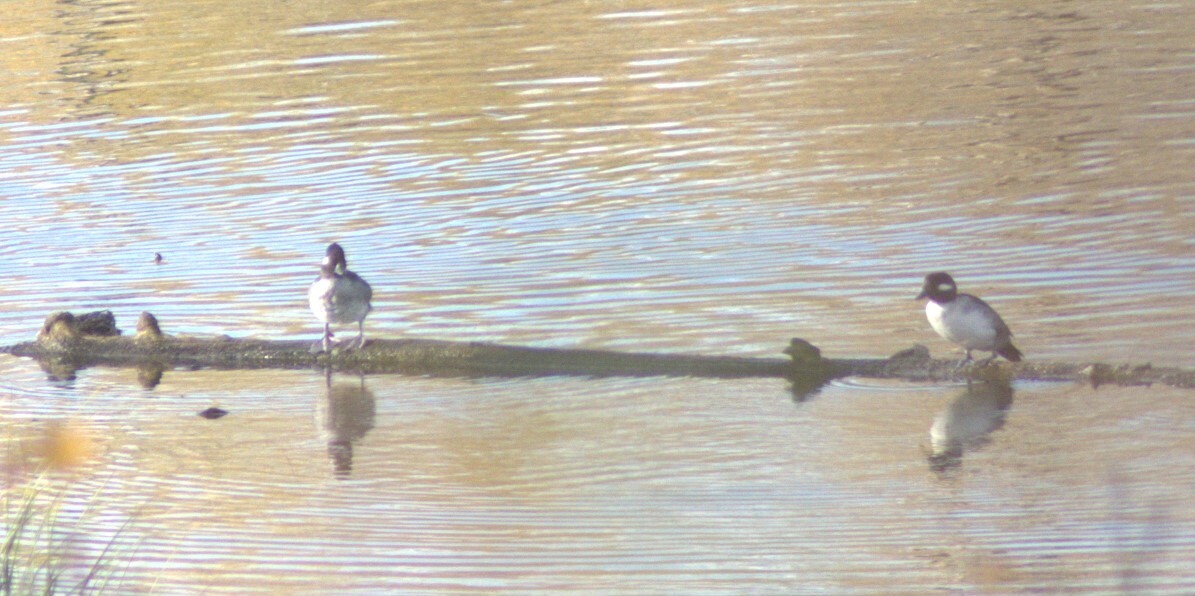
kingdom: Animalia
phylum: Chordata
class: Aves
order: Anseriformes
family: Anatidae
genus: Bucephala
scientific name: Bucephala albeola
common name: Bufflehead
